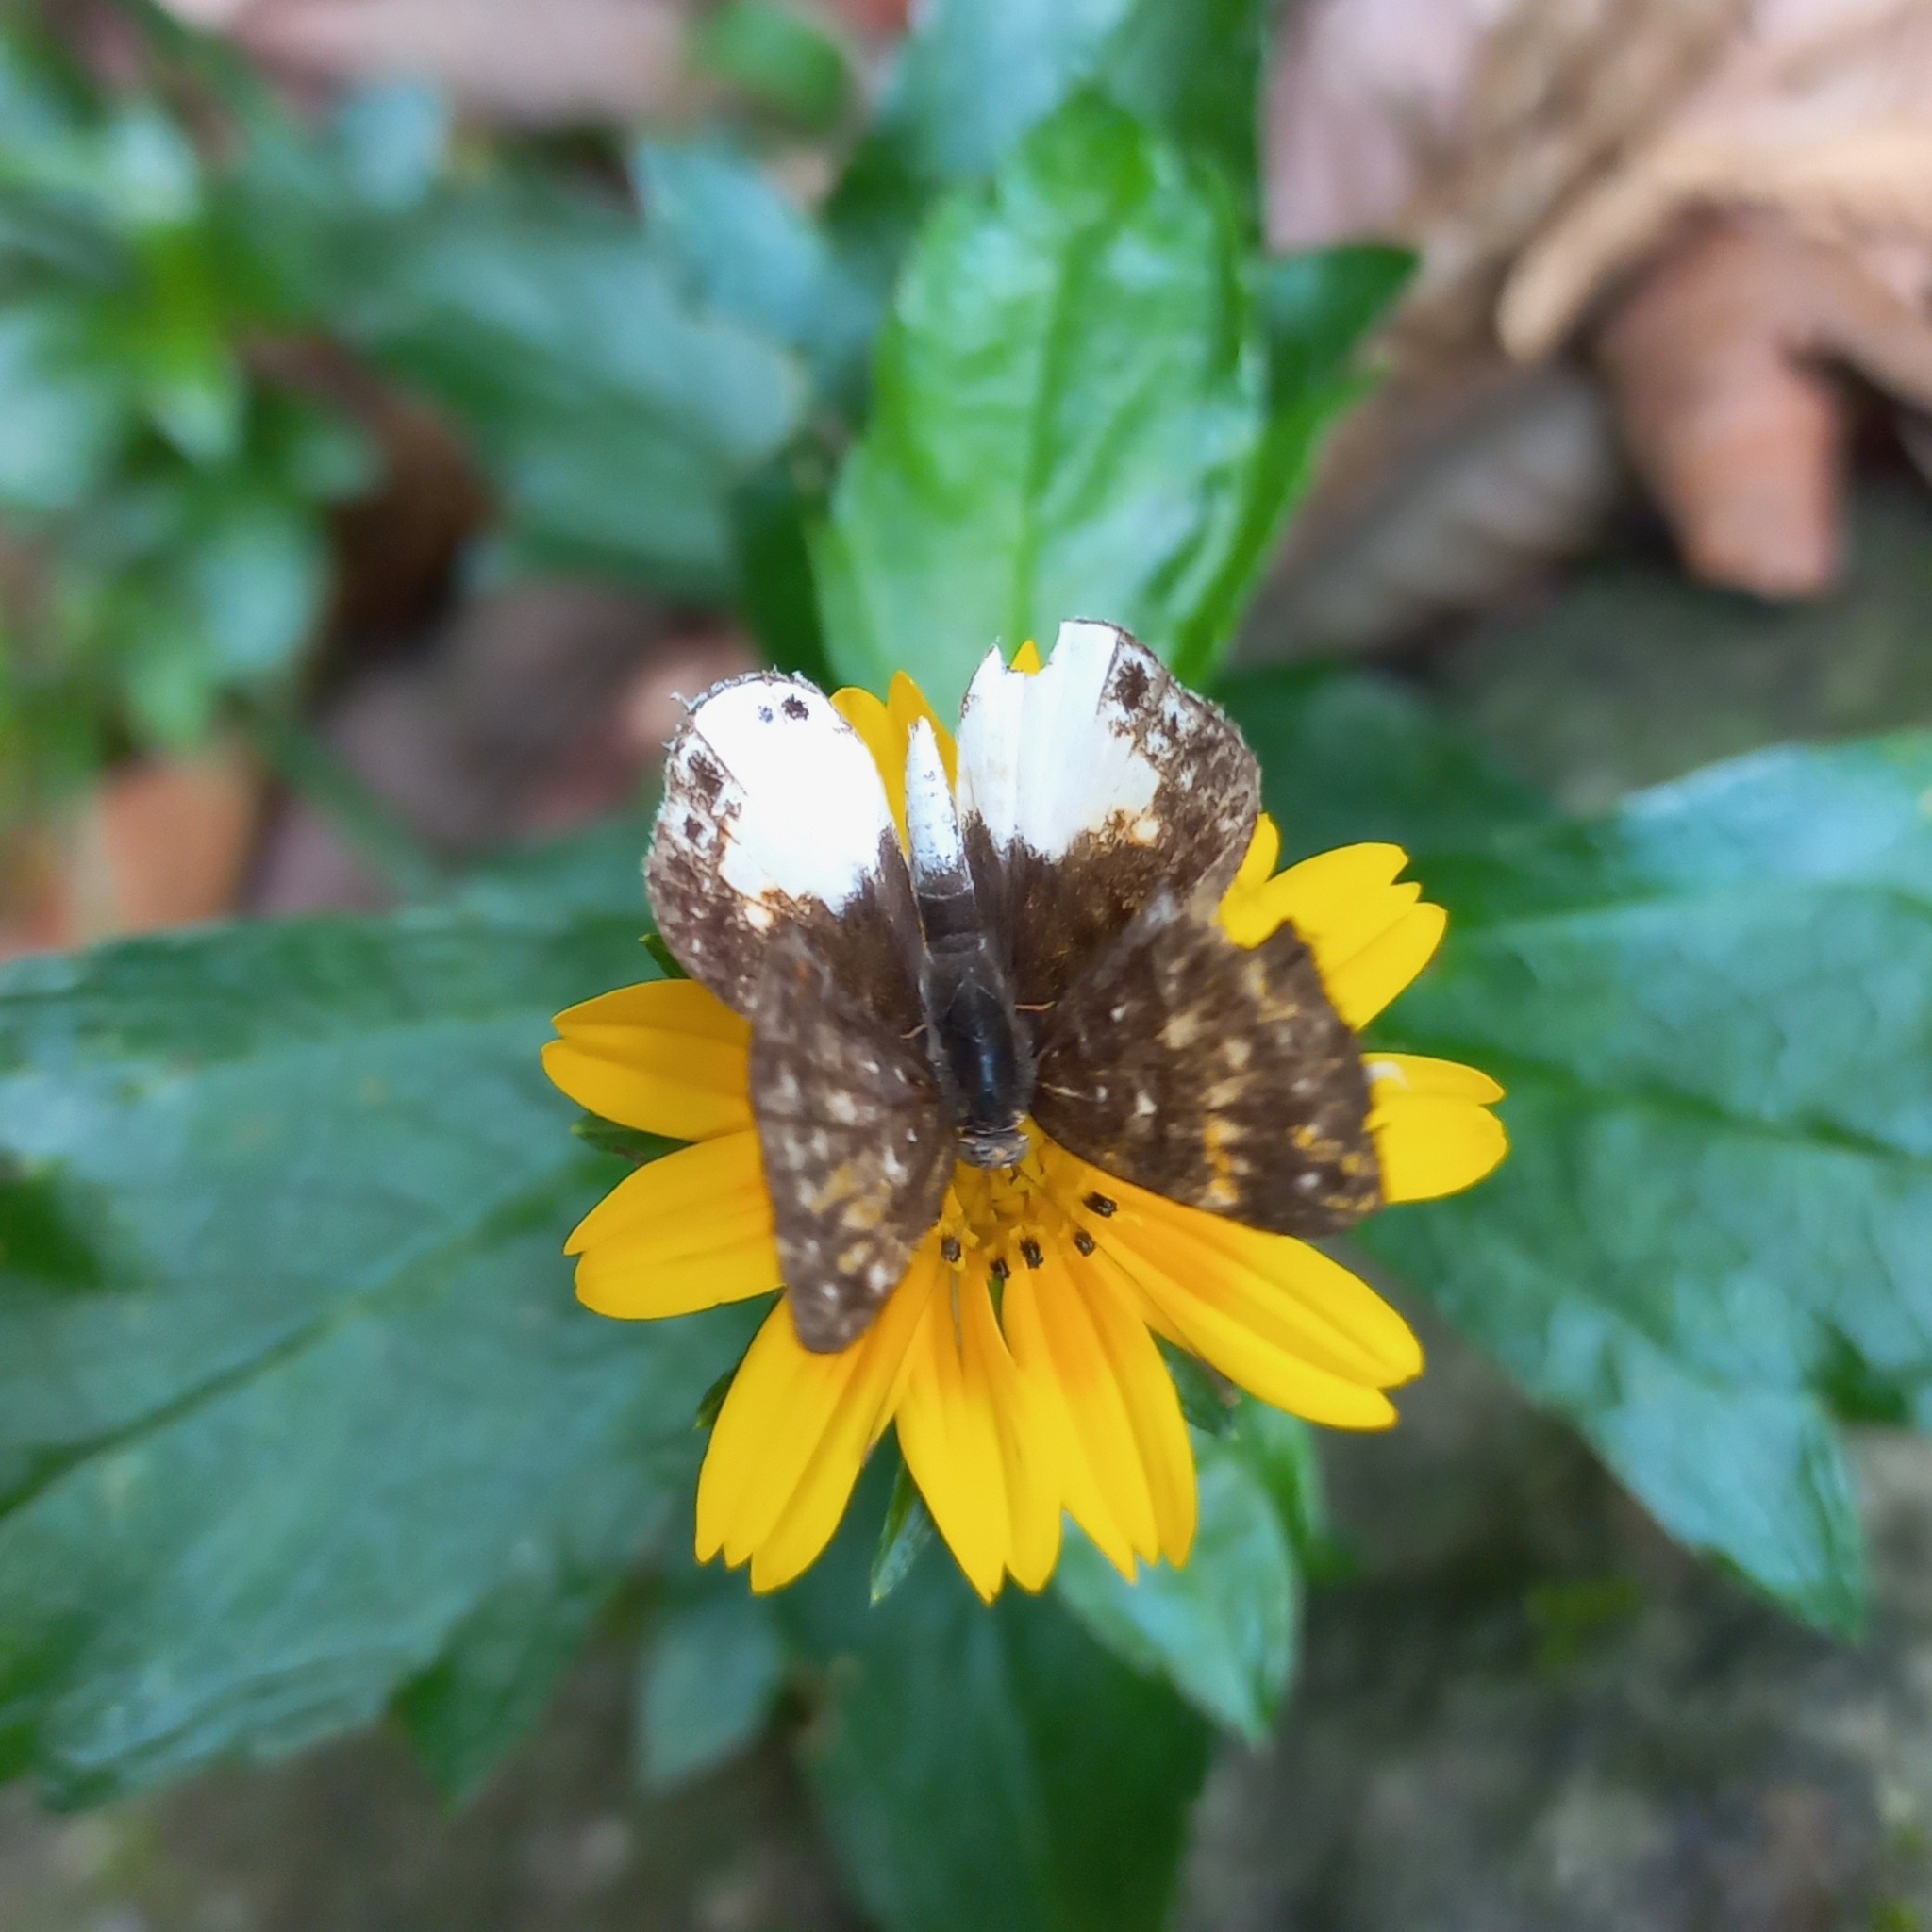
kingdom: Animalia
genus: Lemonias
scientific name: Lemonias zygia
